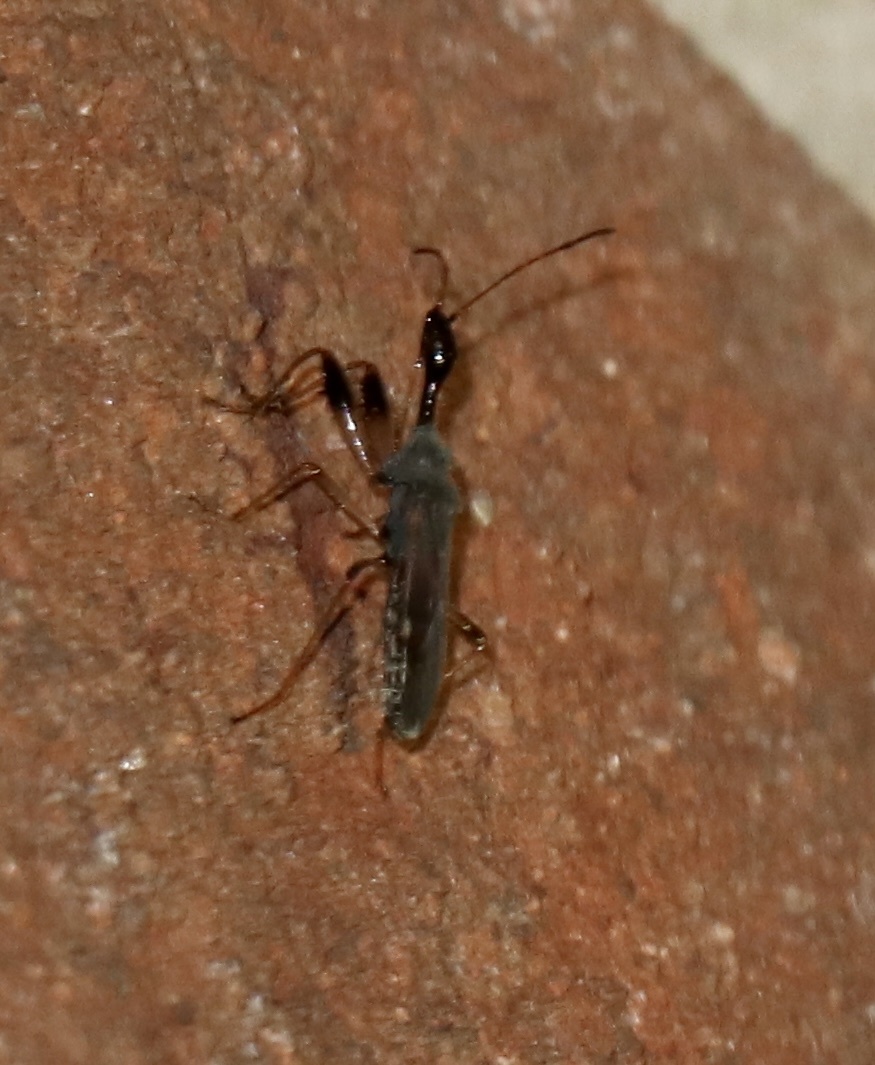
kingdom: Animalia
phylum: Arthropoda
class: Insecta
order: Hemiptera
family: Rhyparochromidae
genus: Myodocha
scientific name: Myodocha serripes
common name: Long-necked seed bug
